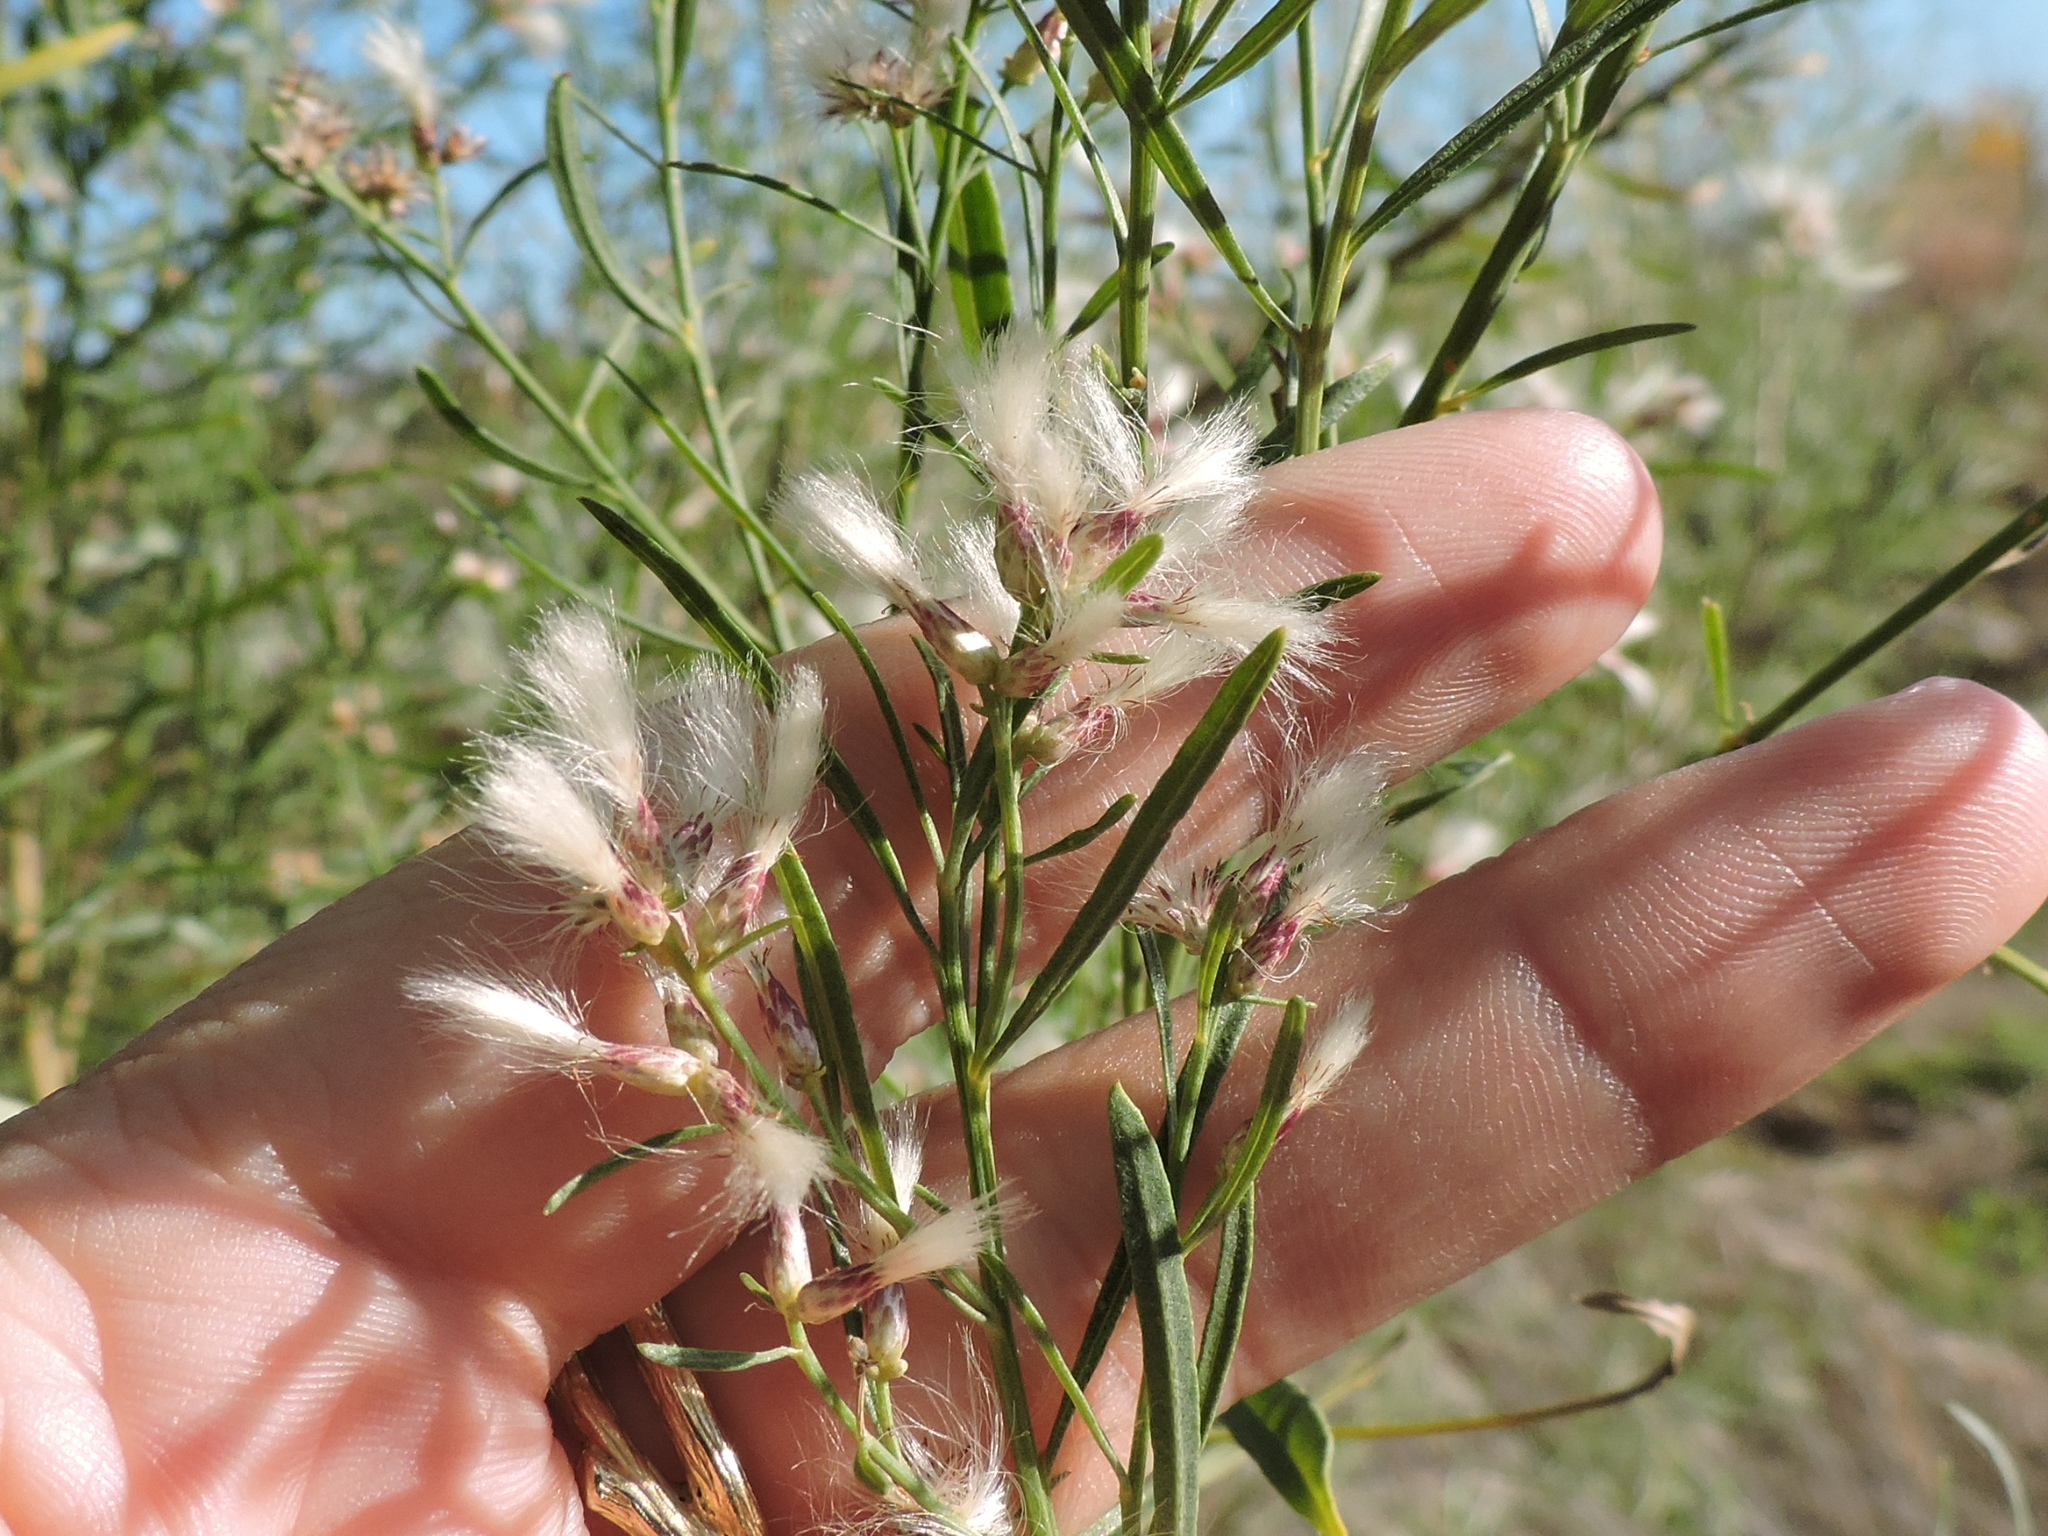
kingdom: Plantae
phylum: Tracheophyta
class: Magnoliopsida
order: Asterales
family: Asteraceae
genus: Baccharis
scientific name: Baccharis neglecta
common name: Roosevelt-weed
